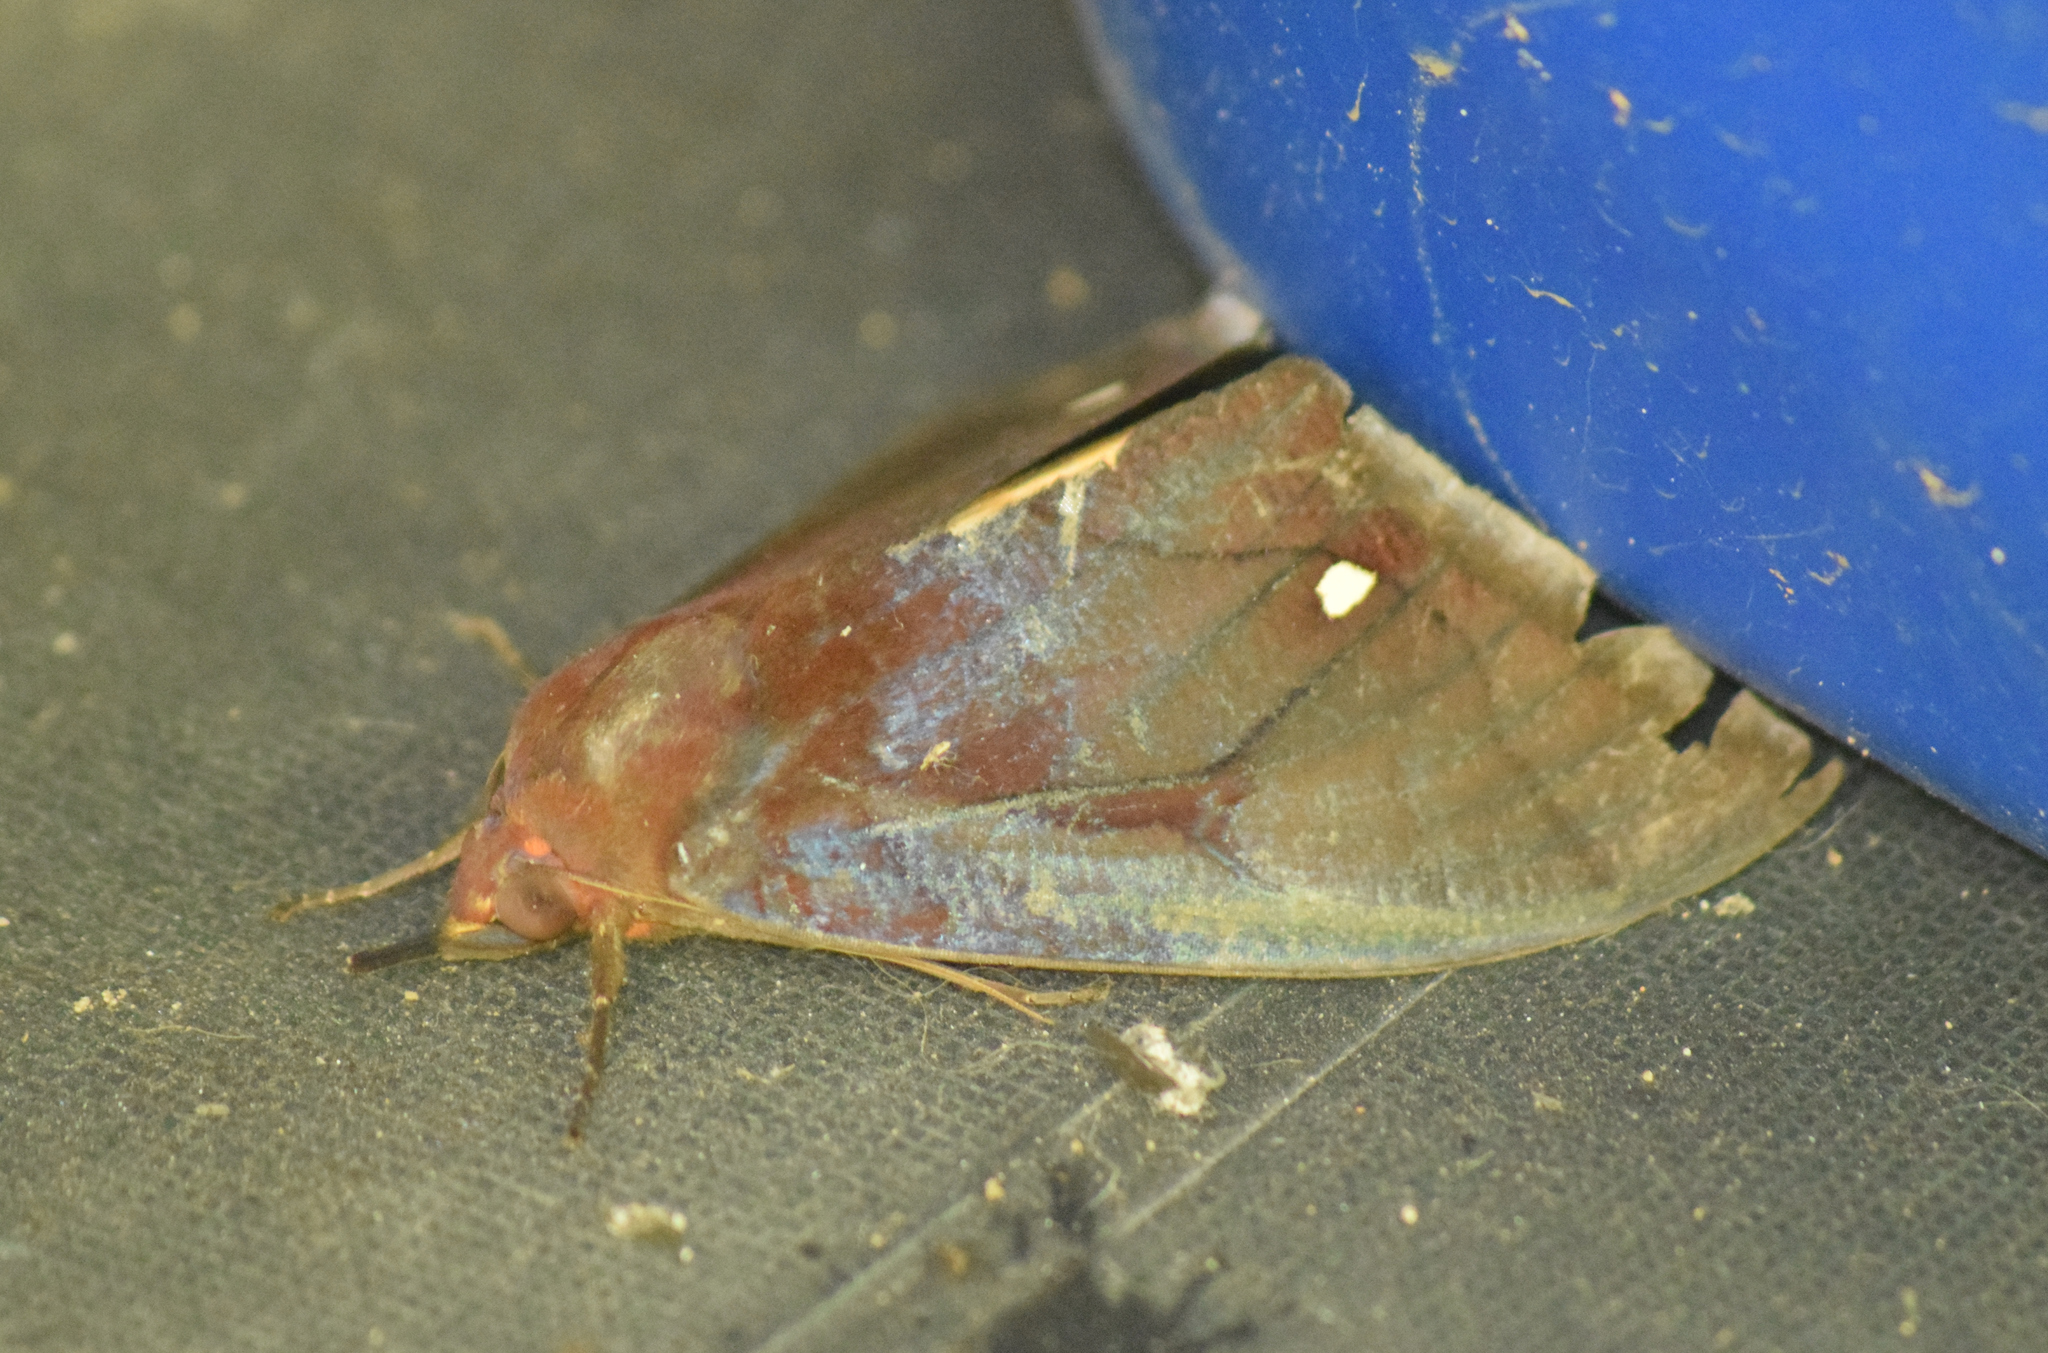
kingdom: Animalia
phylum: Arthropoda
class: Insecta
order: Lepidoptera
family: Erebidae
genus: Graphigona
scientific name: Graphigona regina
